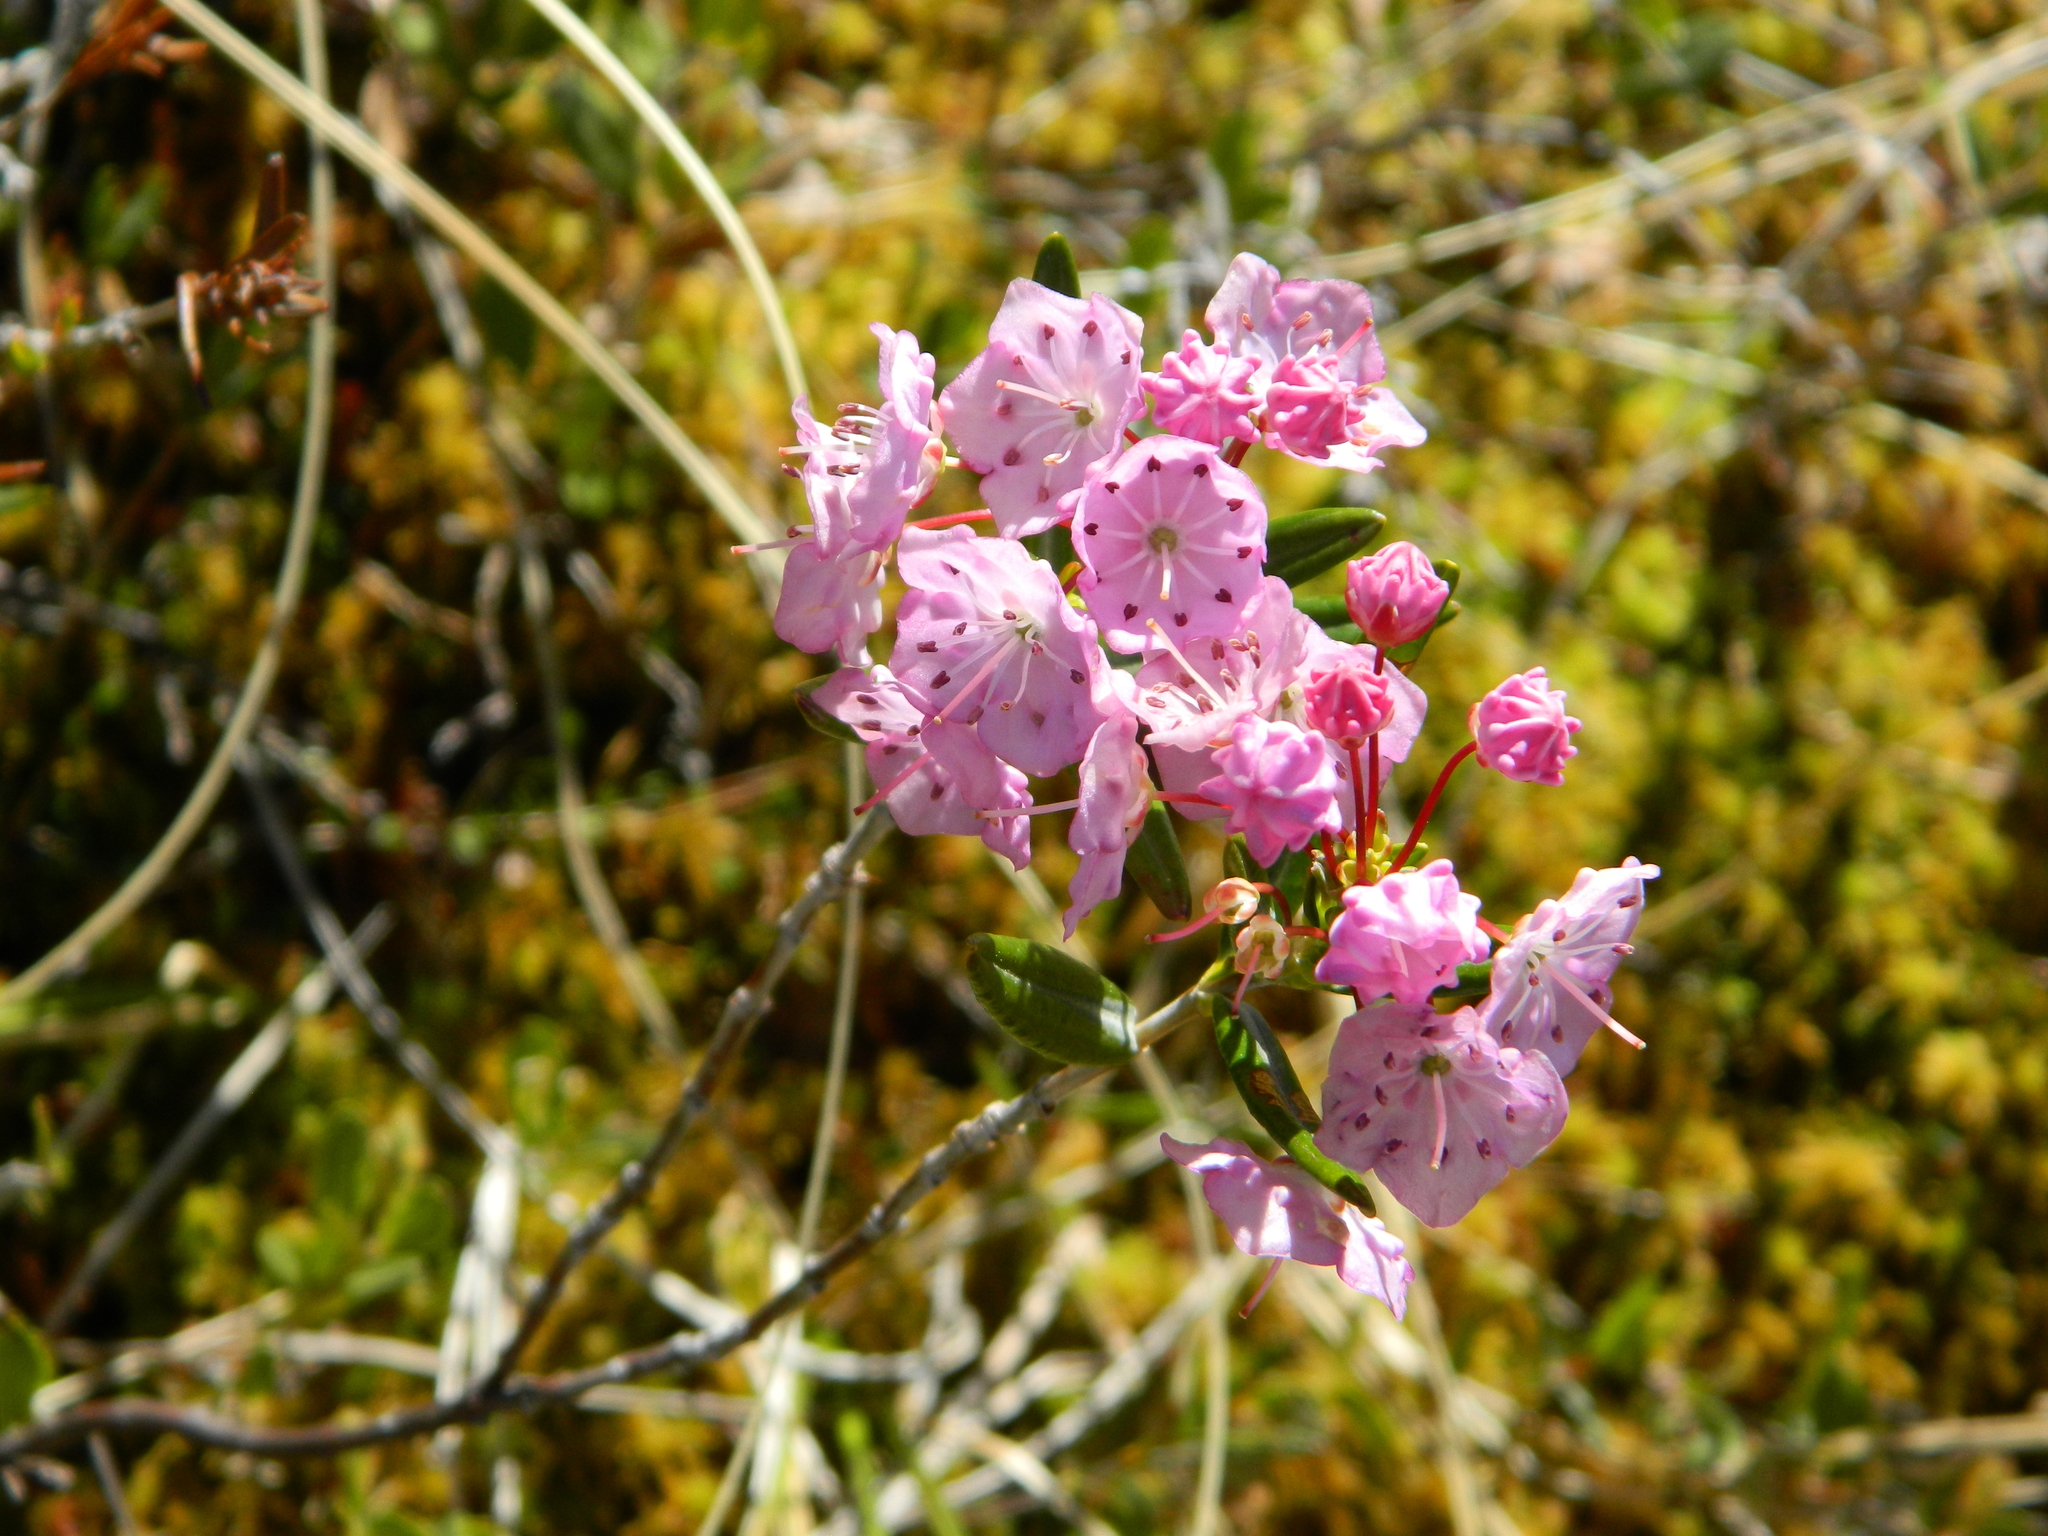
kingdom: Plantae
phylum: Tracheophyta
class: Magnoliopsida
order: Ericales
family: Ericaceae
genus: Kalmia
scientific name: Kalmia polifolia
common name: Bog-laurel
